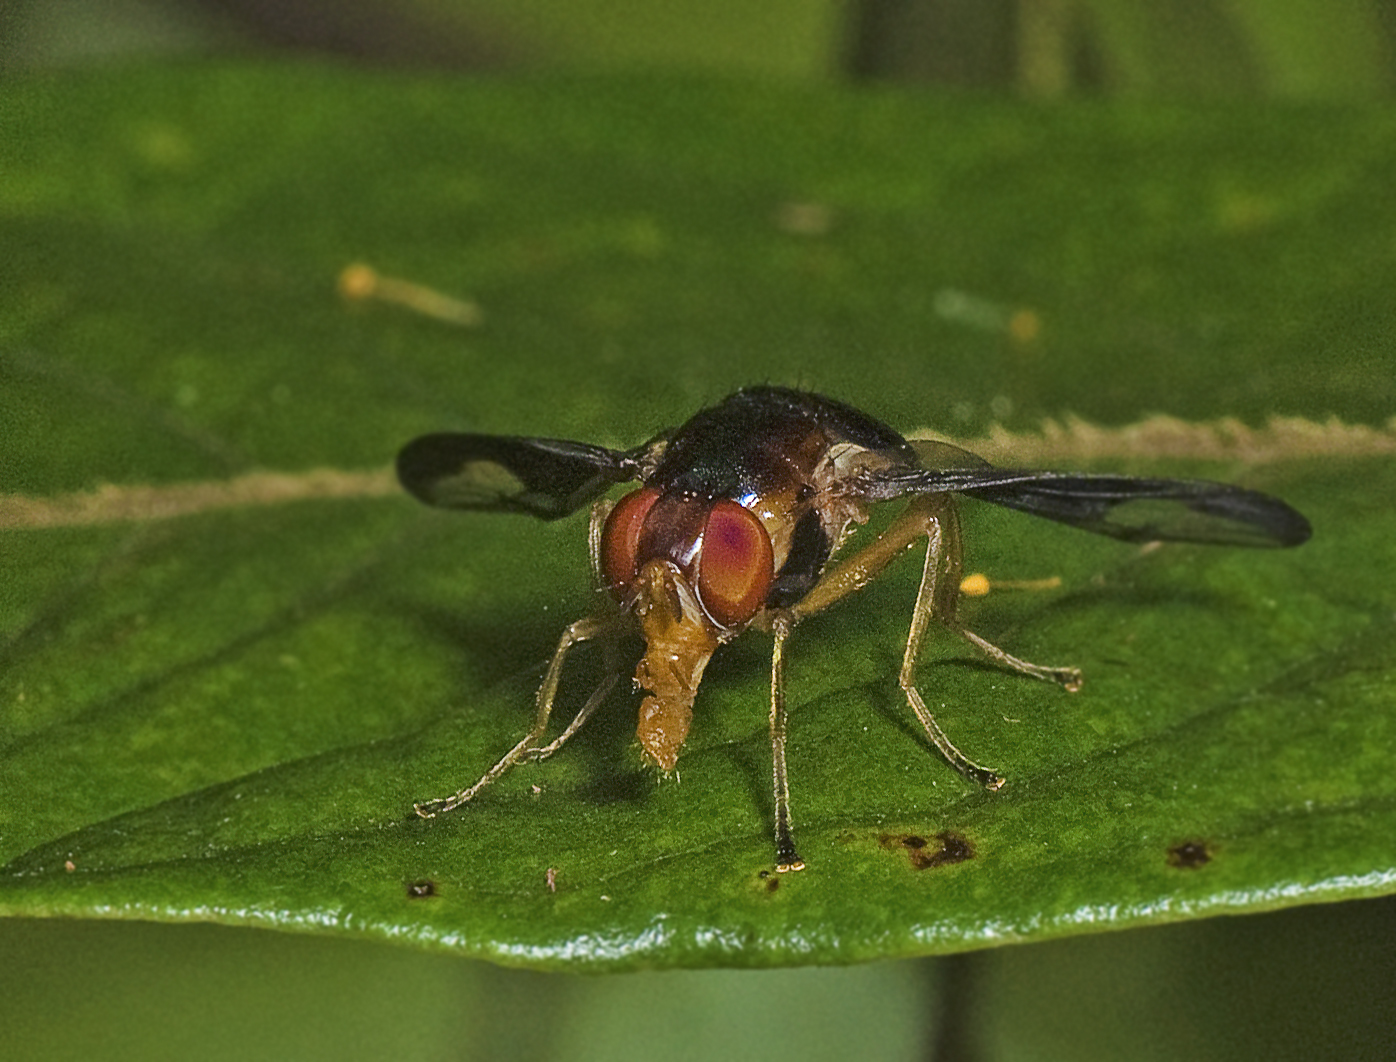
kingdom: Animalia
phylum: Arthropoda
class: Insecta
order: Diptera
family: Platystomatidae
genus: Lamprogaster
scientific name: Lamprogaster stenoparia
